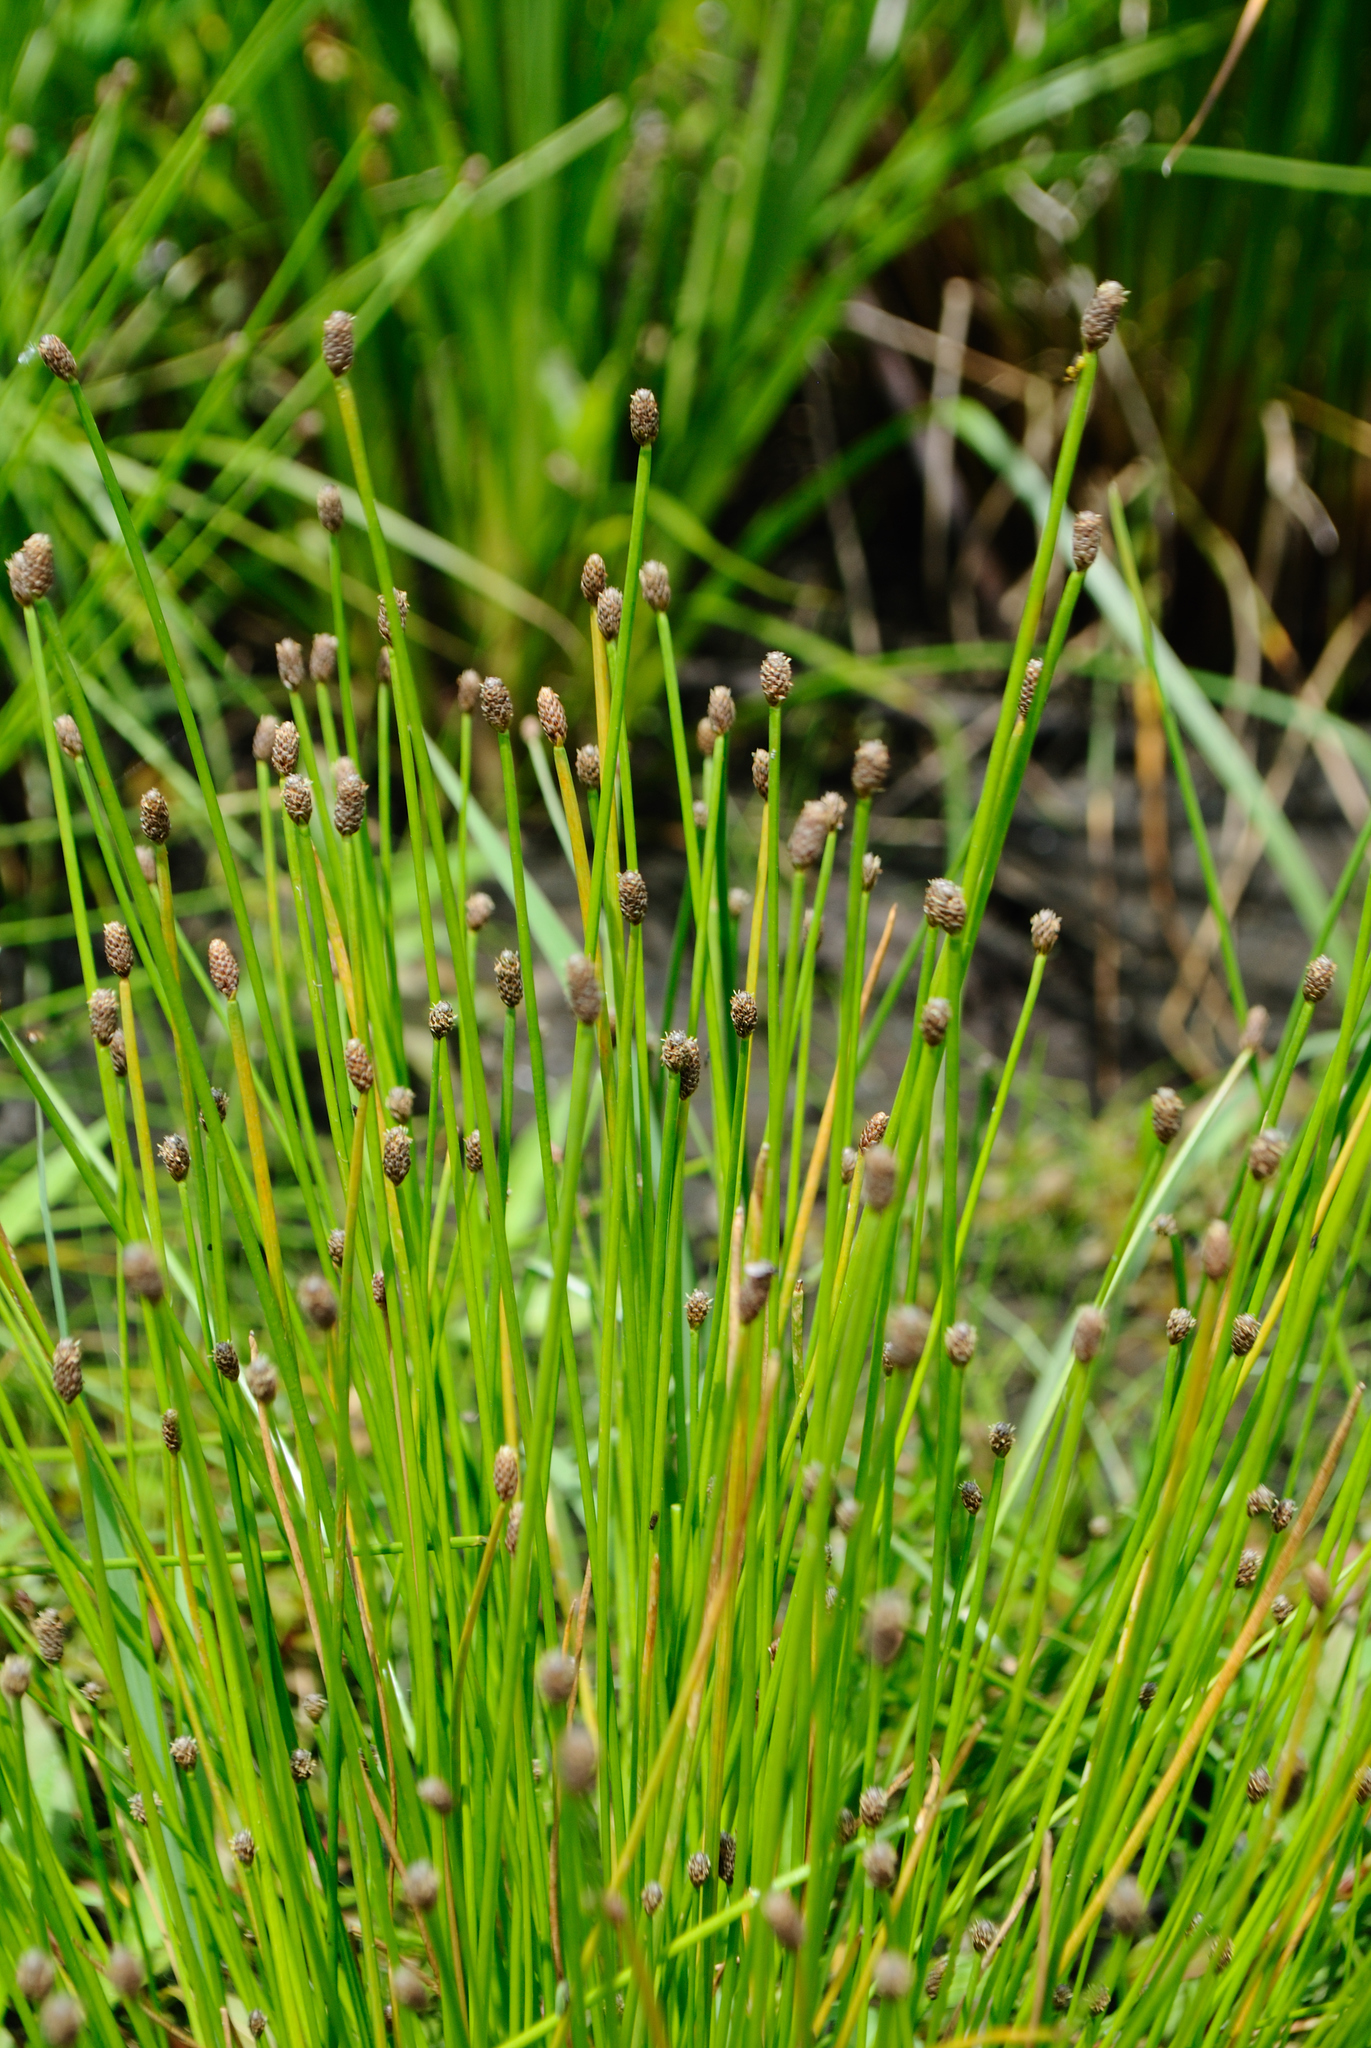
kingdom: Plantae
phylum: Tracheophyta
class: Liliopsida
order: Poales
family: Cyperaceae
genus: Eleocharis
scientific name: Eleocharis obtusa
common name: Blunt spikerush
